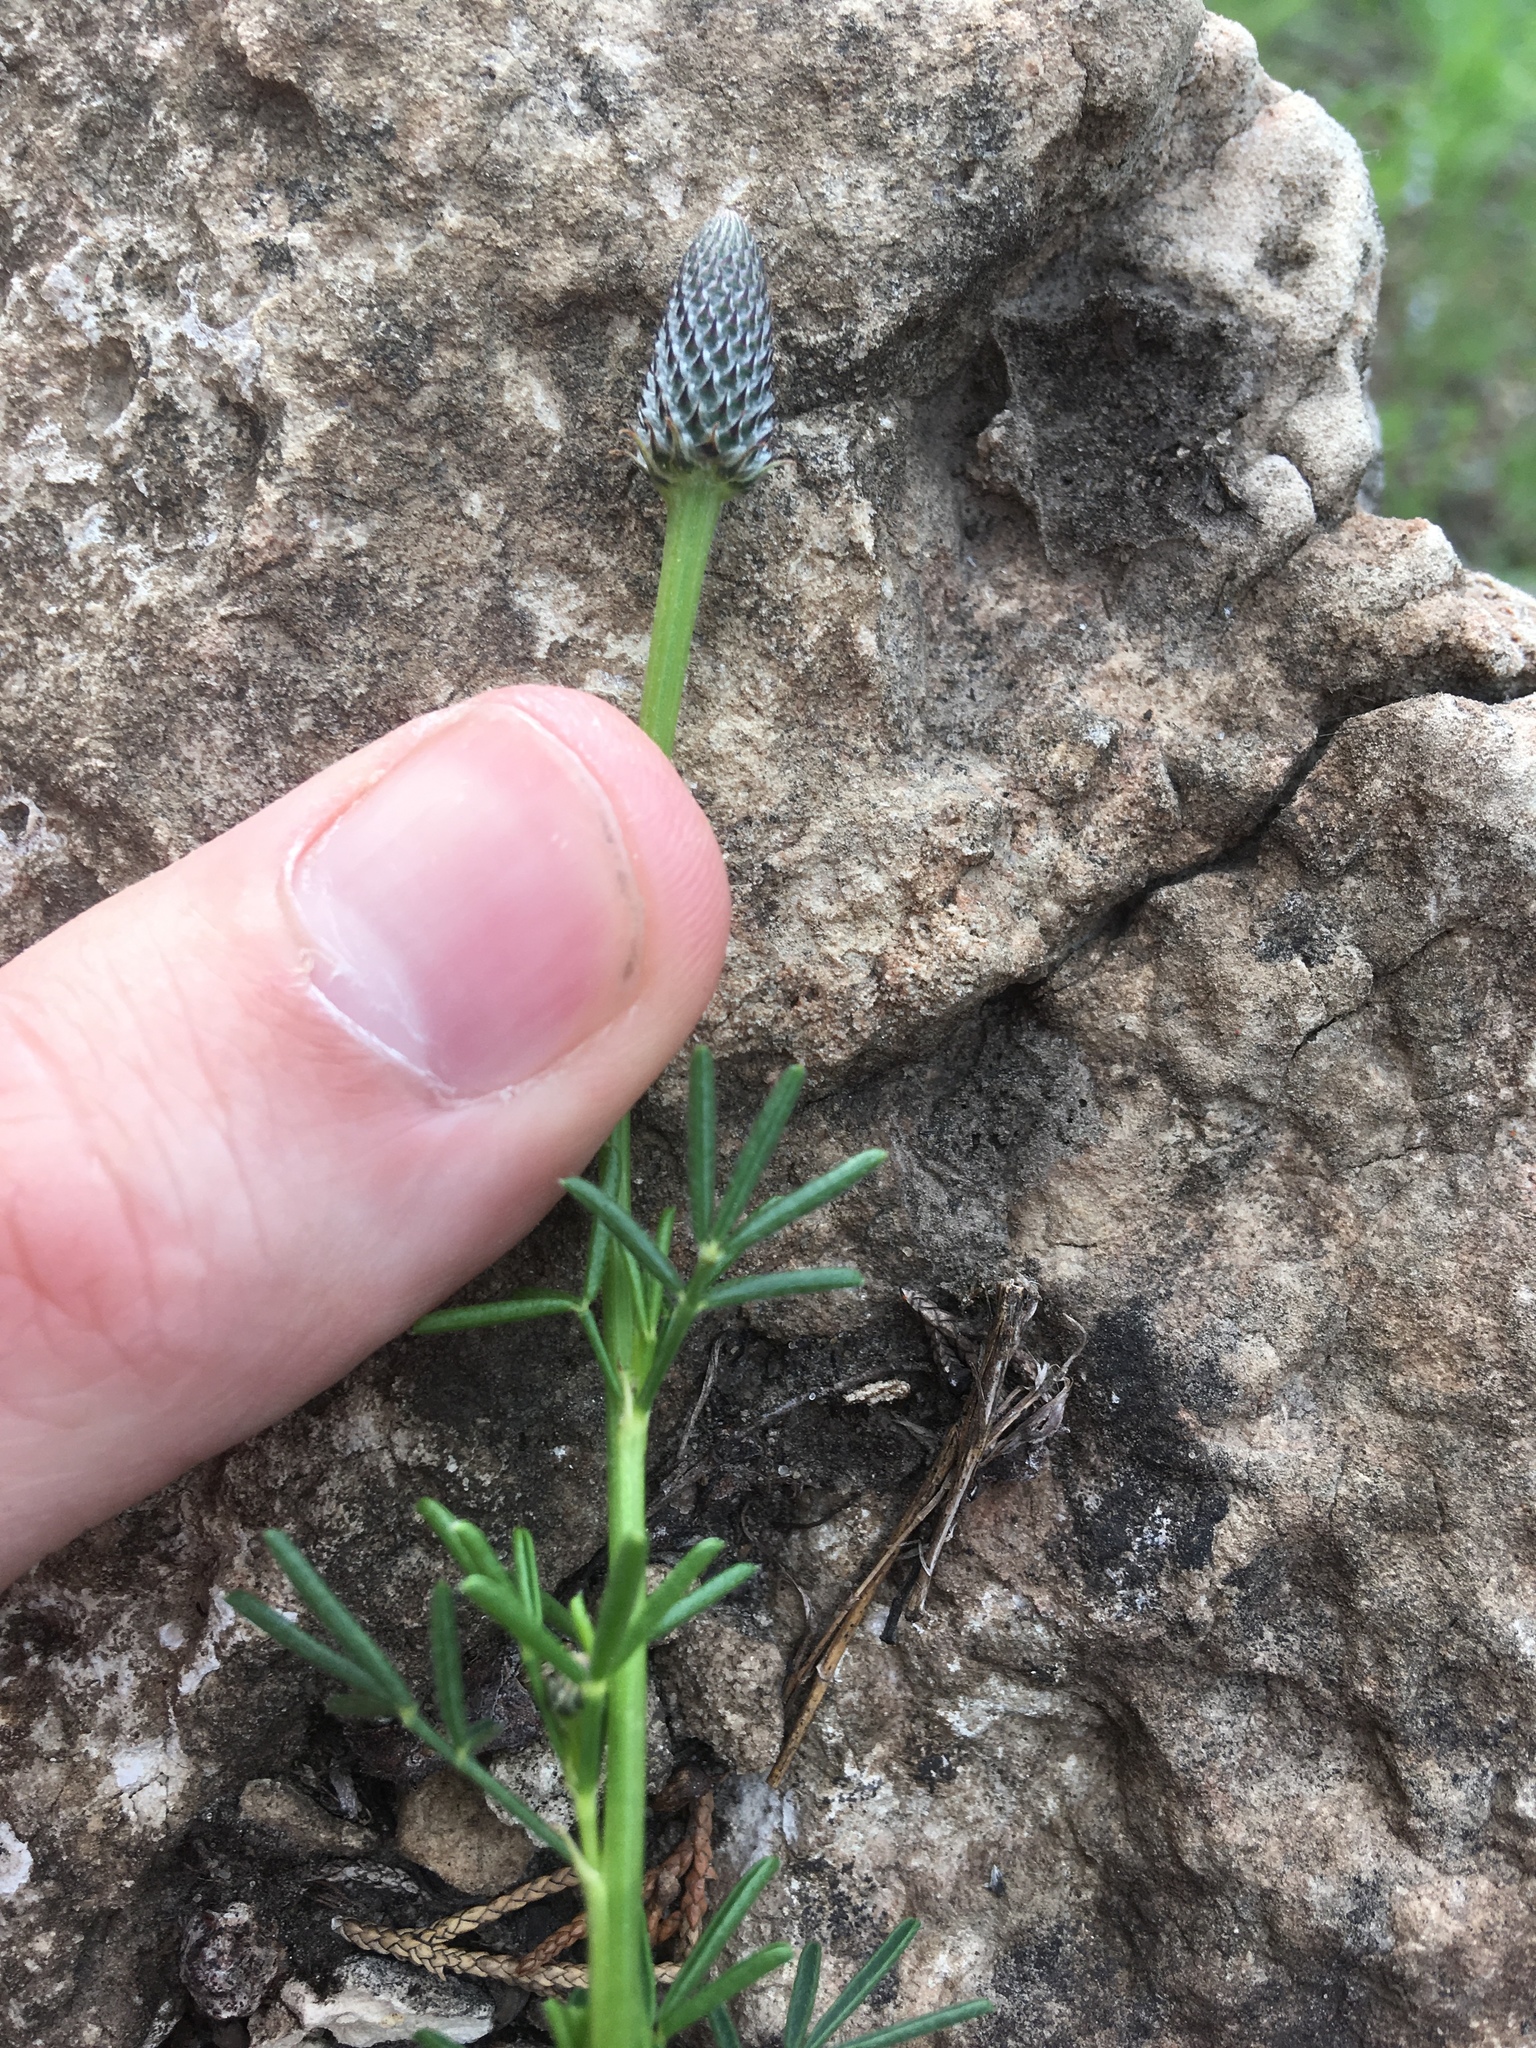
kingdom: Plantae
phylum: Tracheophyta
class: Magnoliopsida
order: Fabales
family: Fabaceae
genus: Dalea
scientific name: Dalea purpurea
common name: Purple prairie-clover
